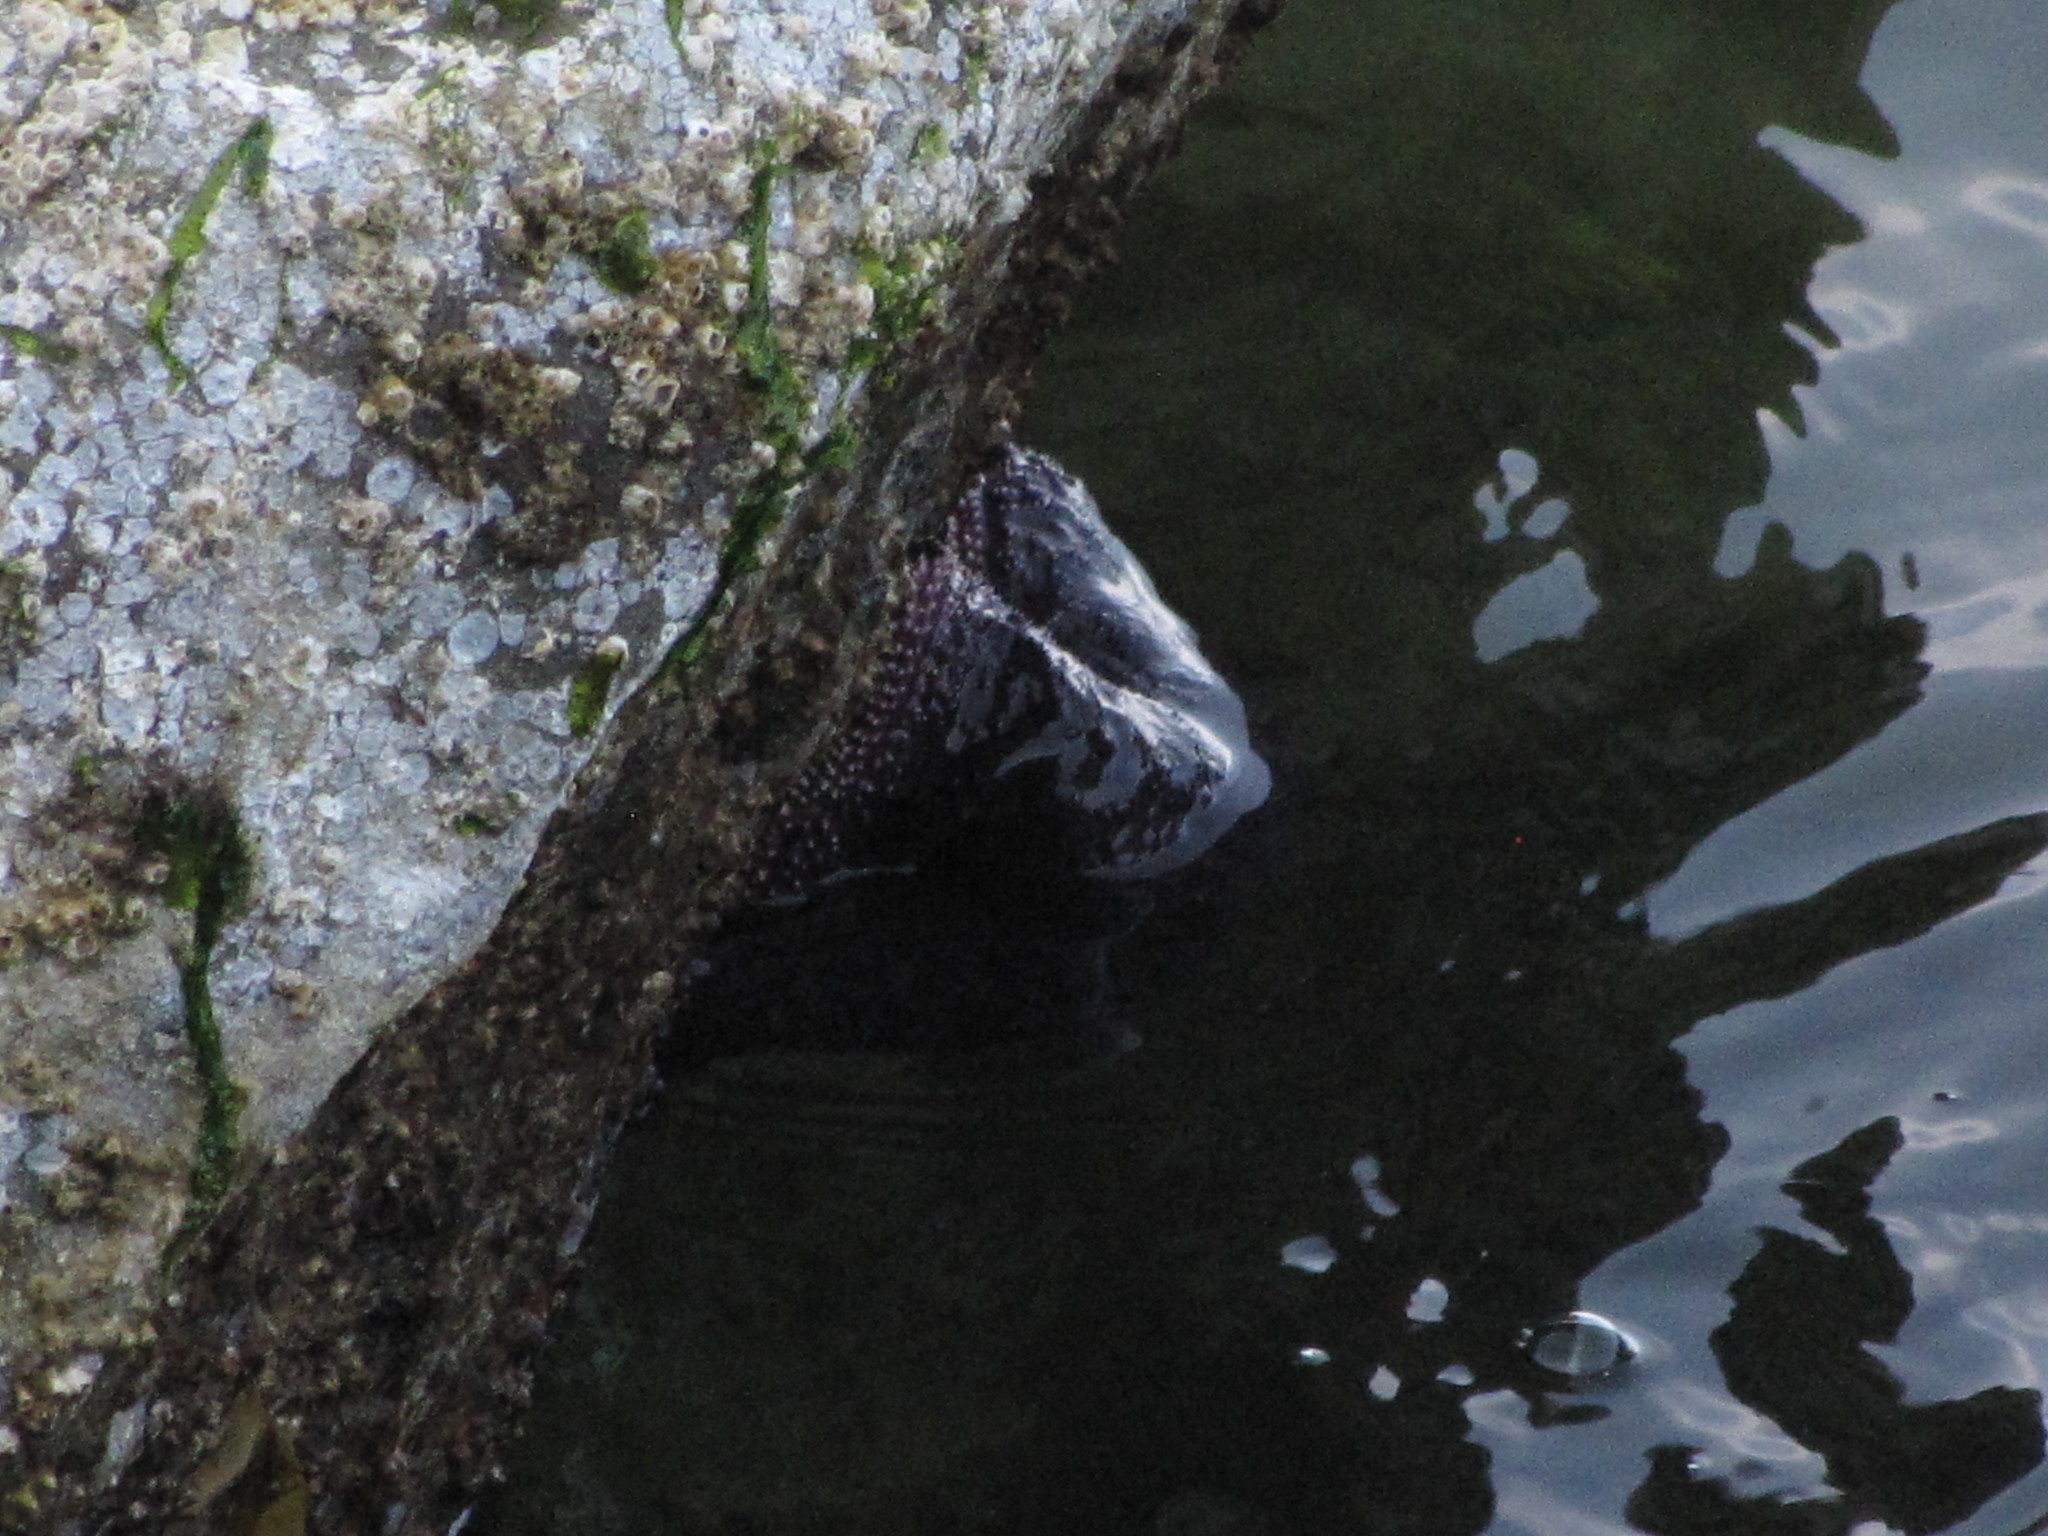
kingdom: Animalia
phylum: Echinodermata
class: Asteroidea
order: Forcipulatida
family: Asteriidae
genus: Pisaster
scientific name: Pisaster ochraceus
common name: Ochre stars
